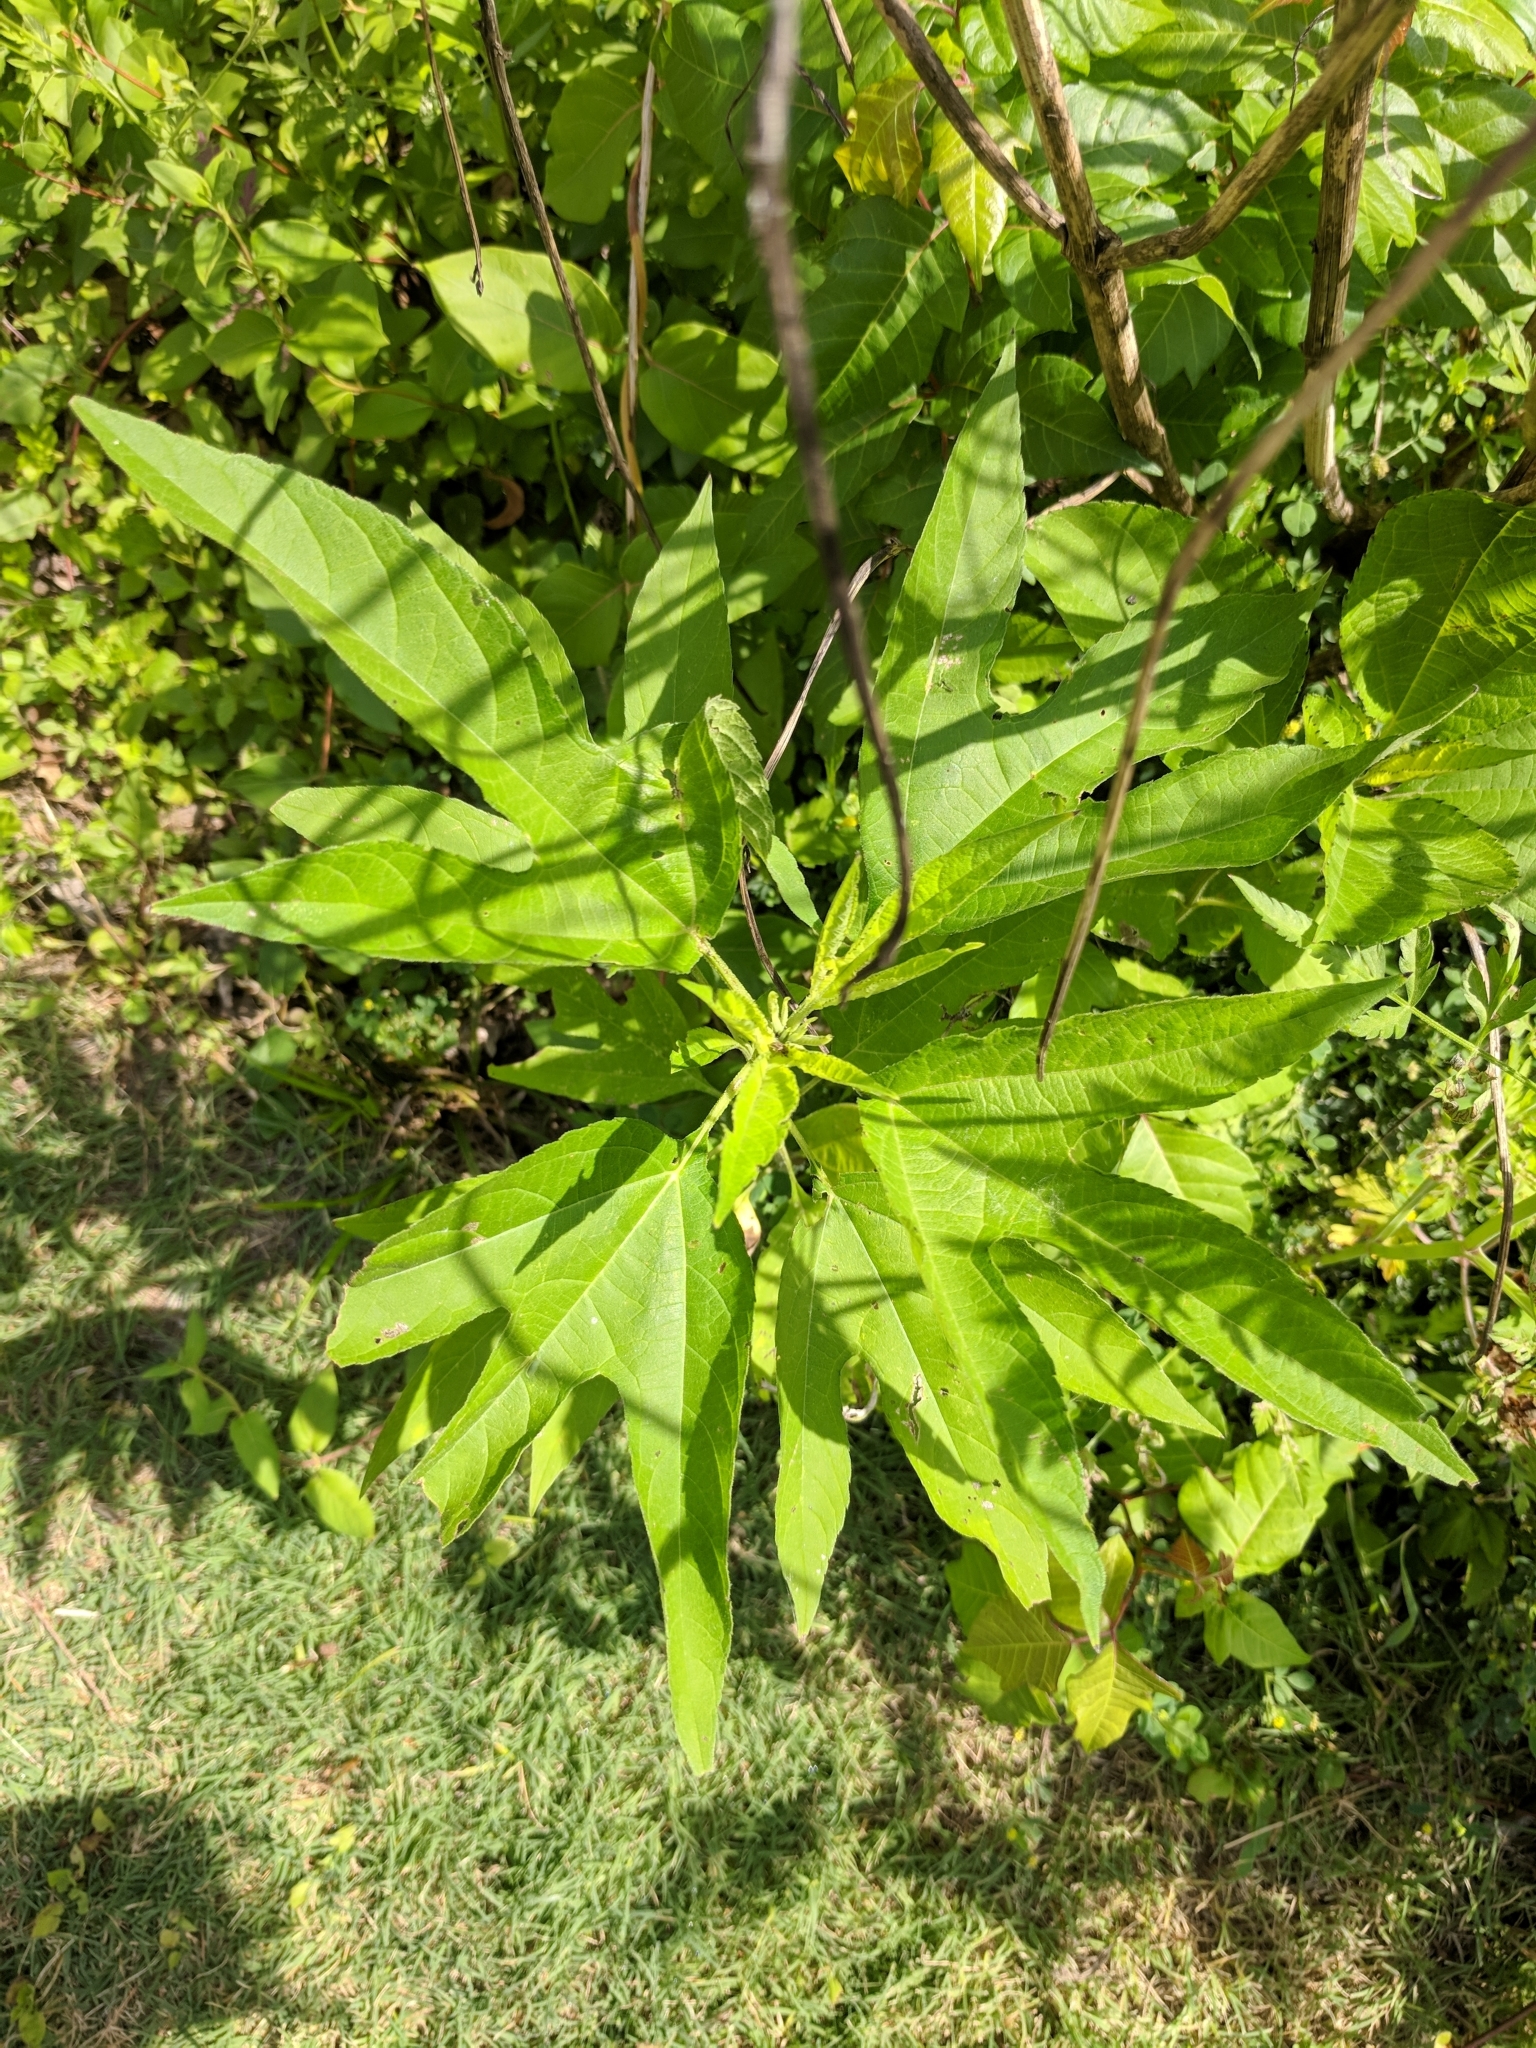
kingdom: Plantae
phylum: Tracheophyta
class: Magnoliopsida
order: Asterales
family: Asteraceae
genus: Ambrosia
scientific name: Ambrosia trifida
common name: Giant ragweed
